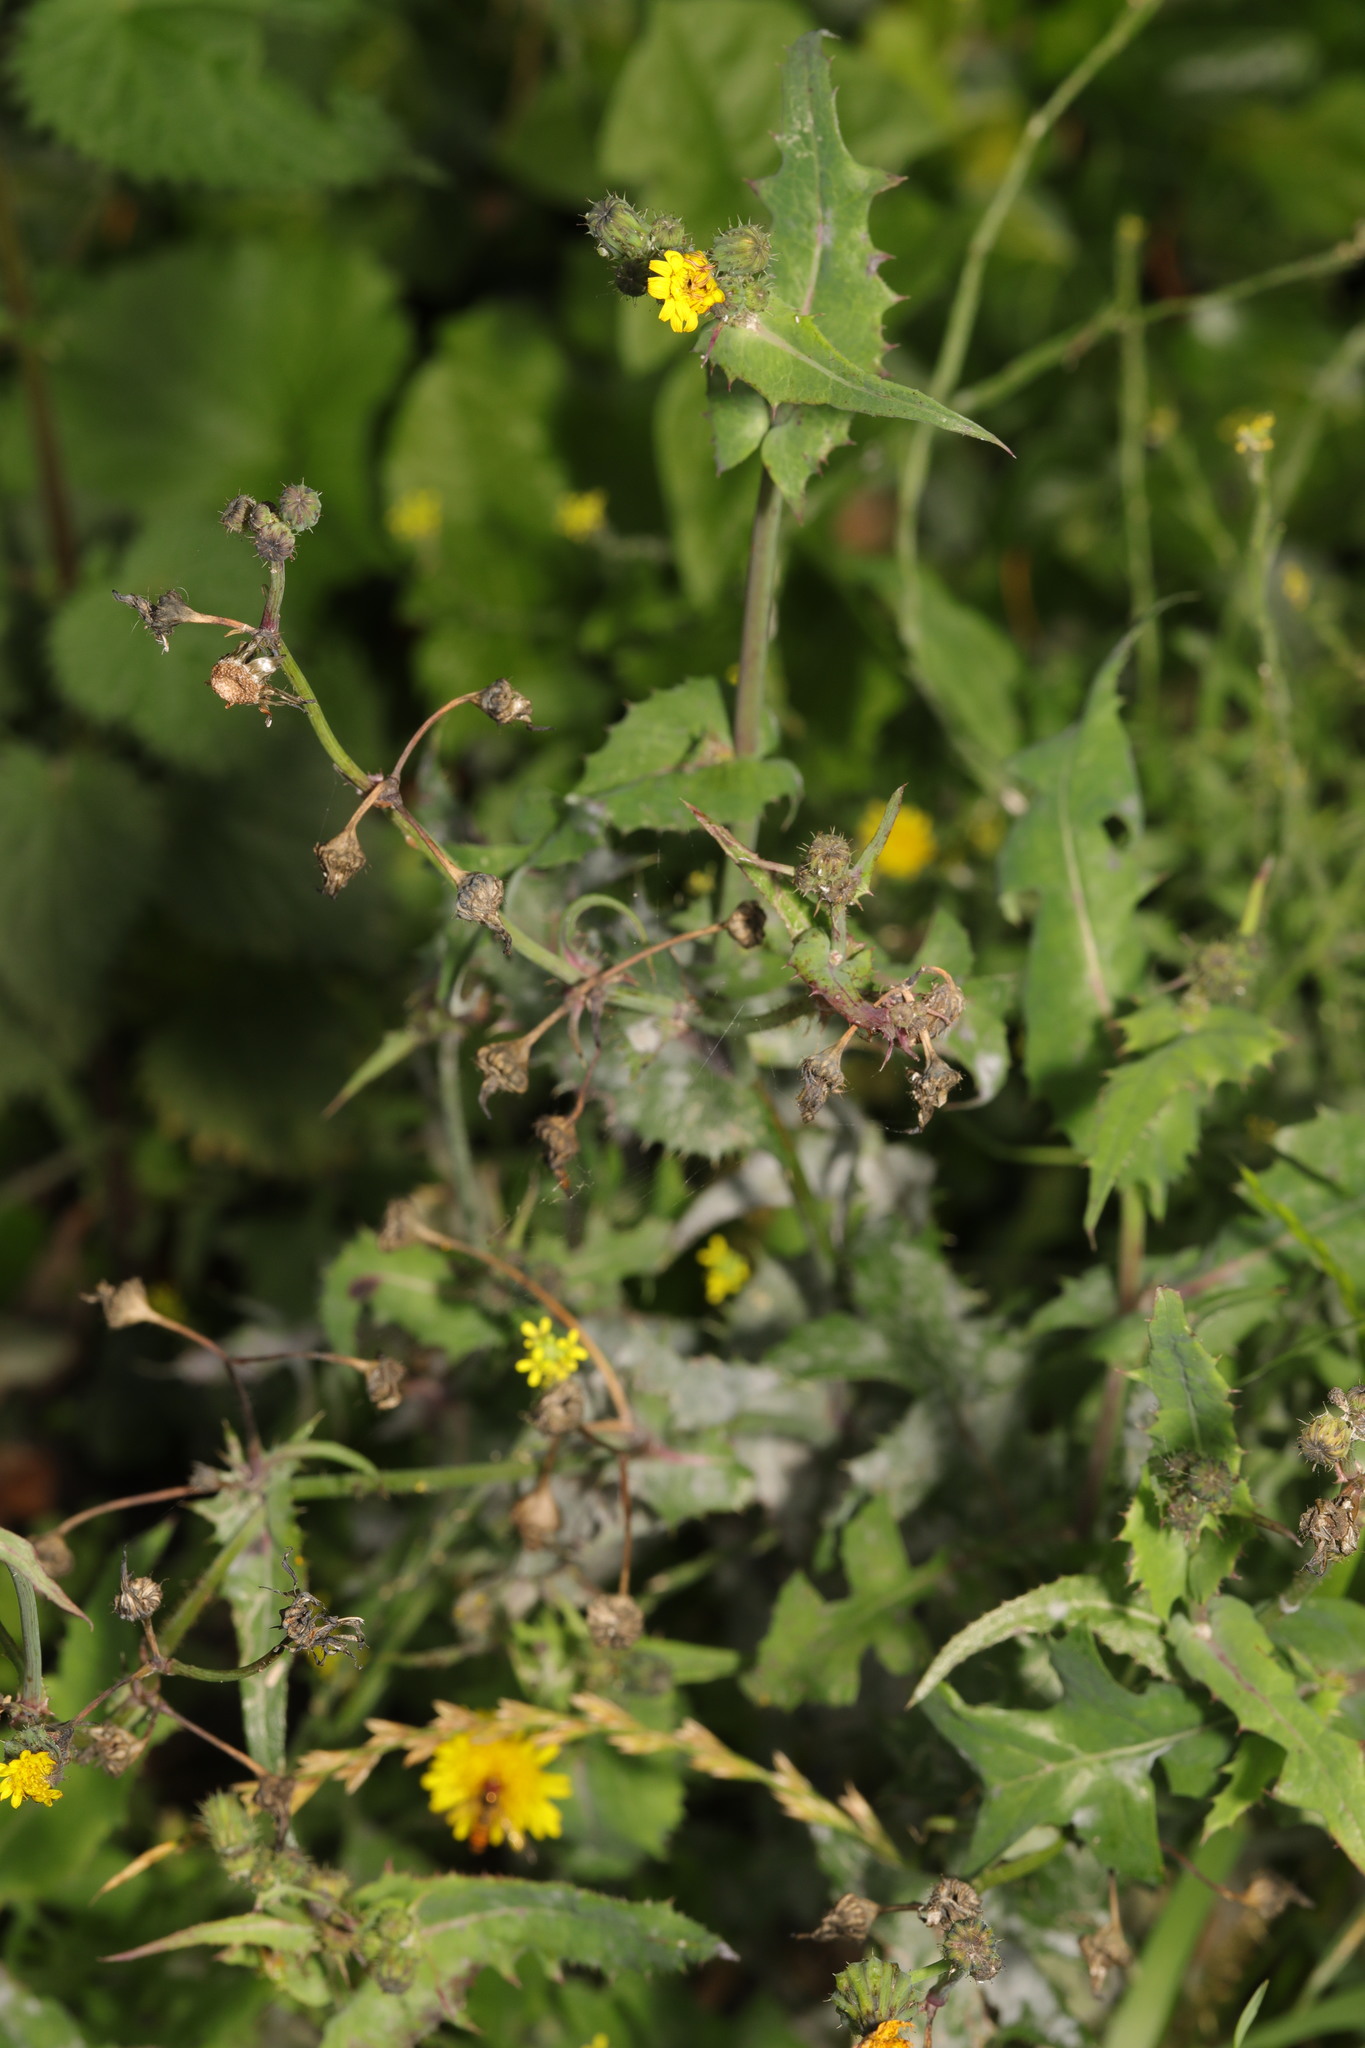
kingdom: Plantae
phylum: Tracheophyta
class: Magnoliopsida
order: Asterales
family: Asteraceae
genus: Sonchus
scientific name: Sonchus oleraceus
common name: Common sowthistle
